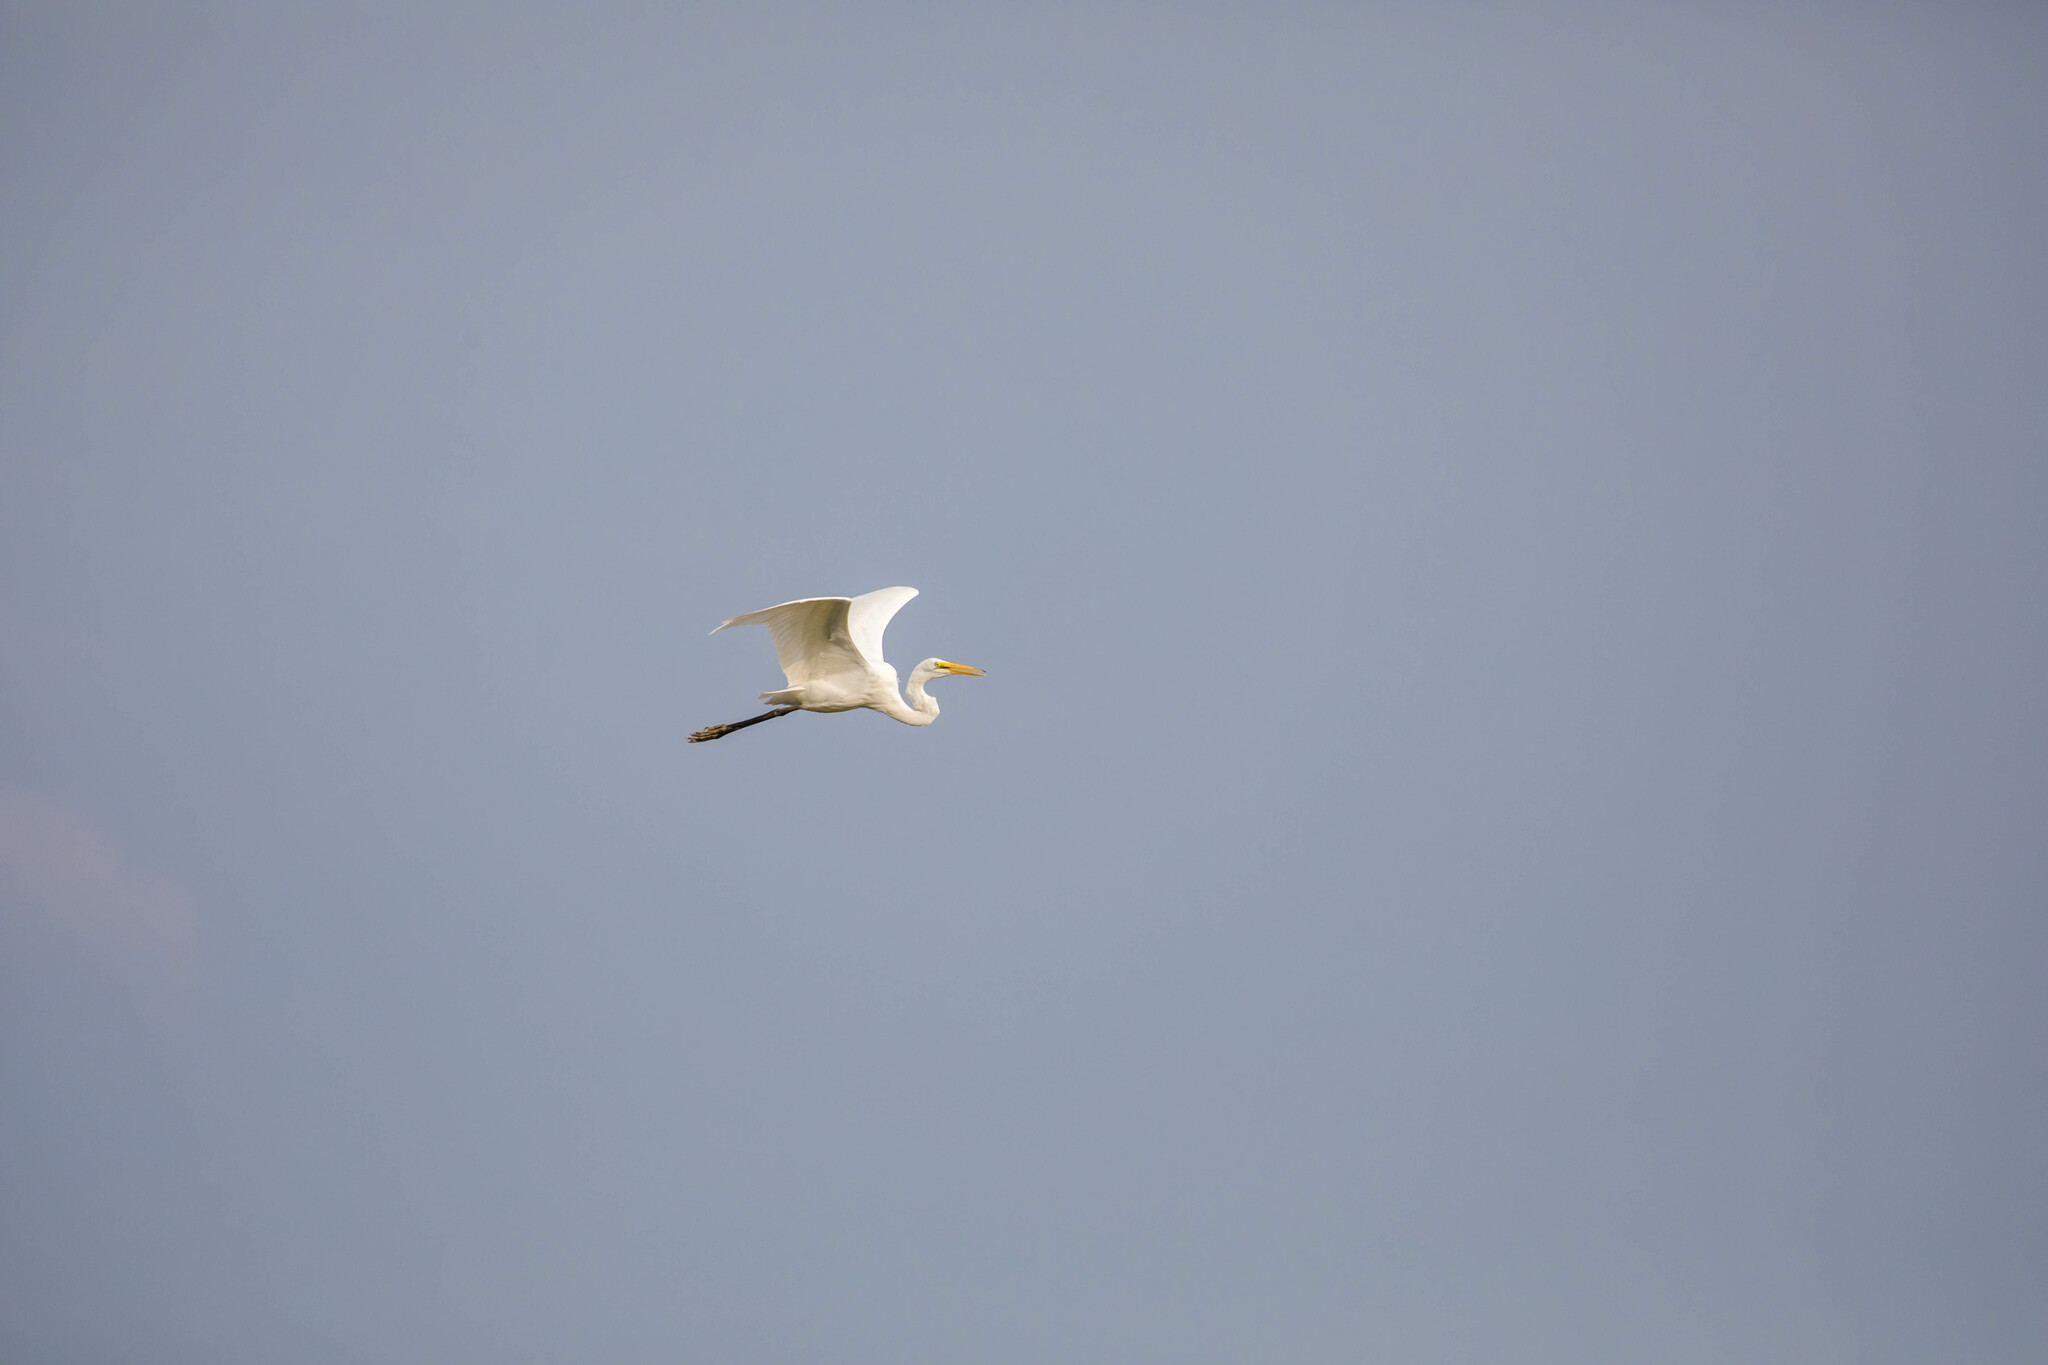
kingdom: Animalia
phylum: Chordata
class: Aves
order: Pelecaniformes
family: Ardeidae
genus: Ardea
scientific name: Ardea alba
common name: Great egret
